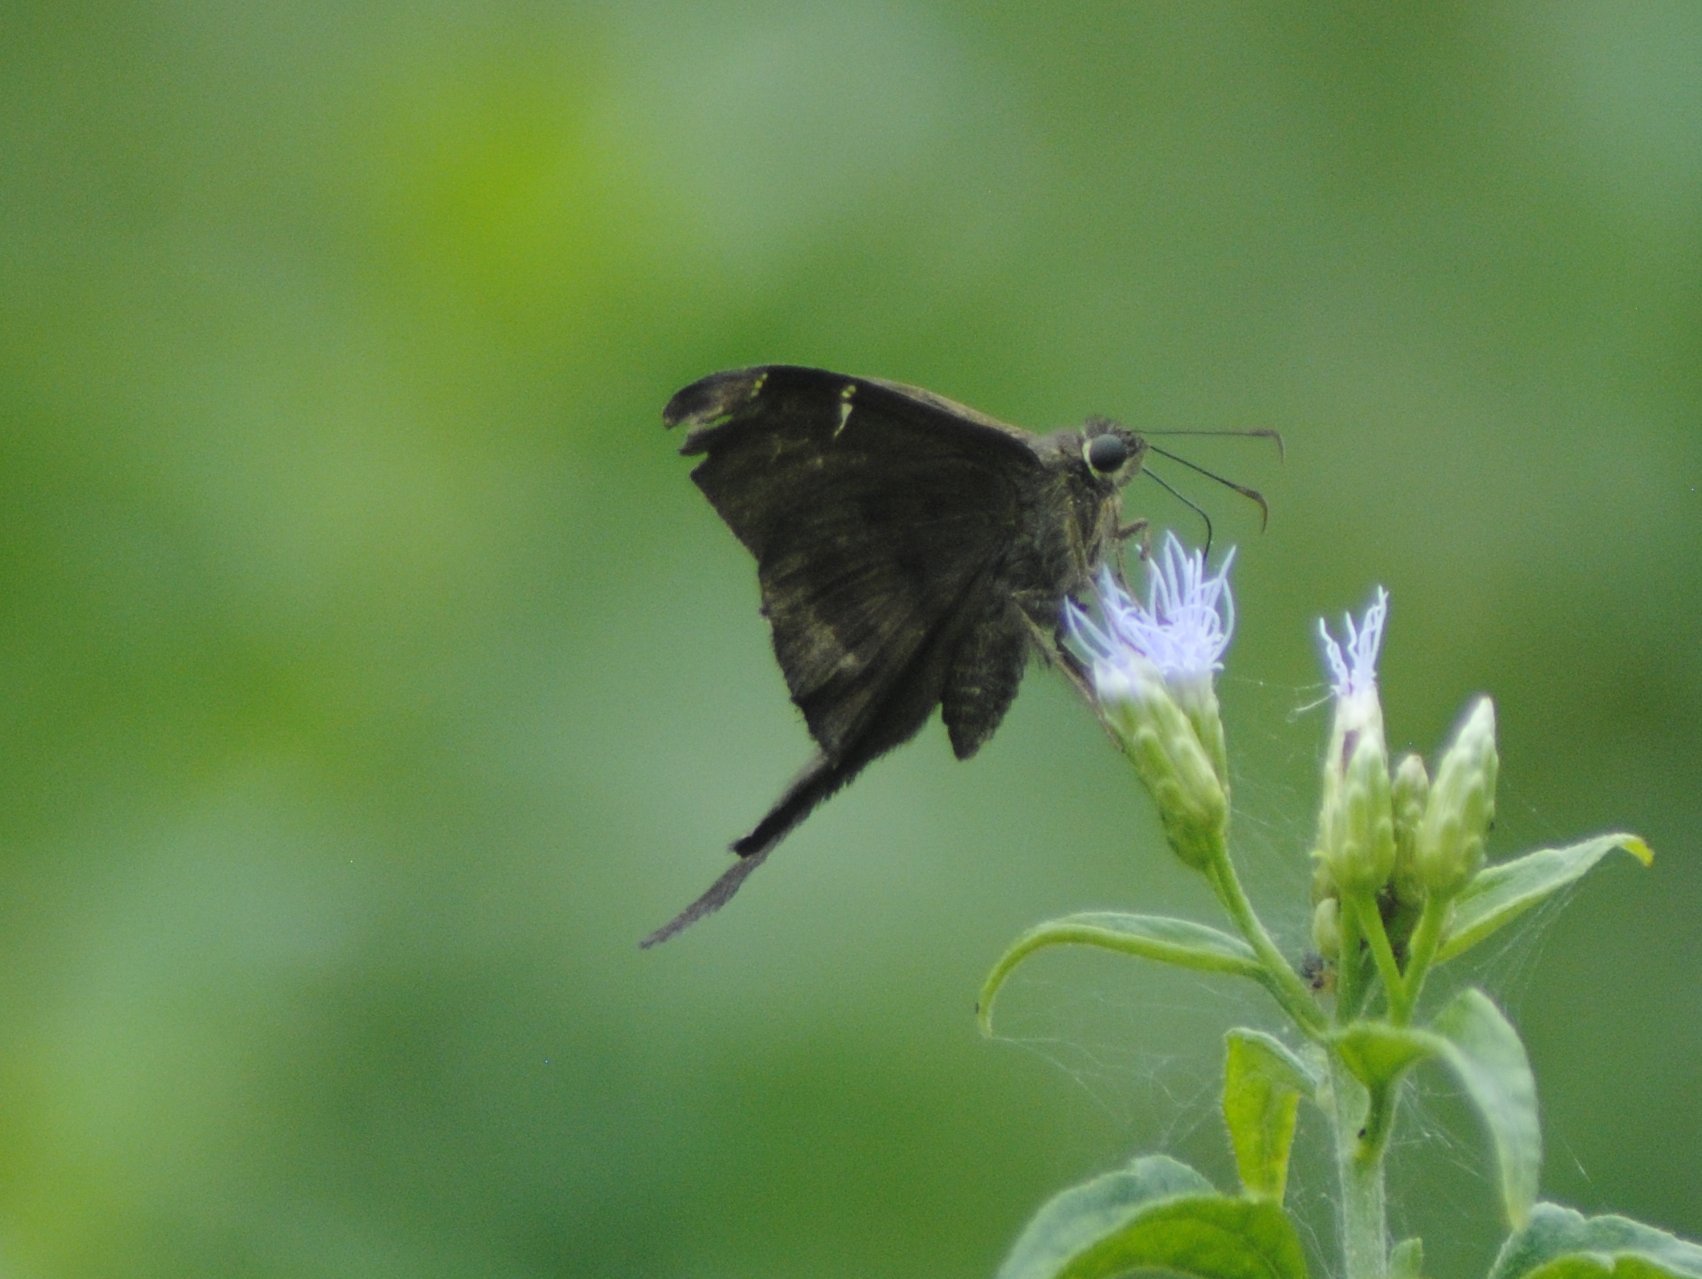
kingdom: Animalia
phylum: Arthropoda
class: Insecta
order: Lepidoptera
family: Hesperiidae
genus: Urbanus
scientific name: Urbanus procne
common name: Brown longtail
